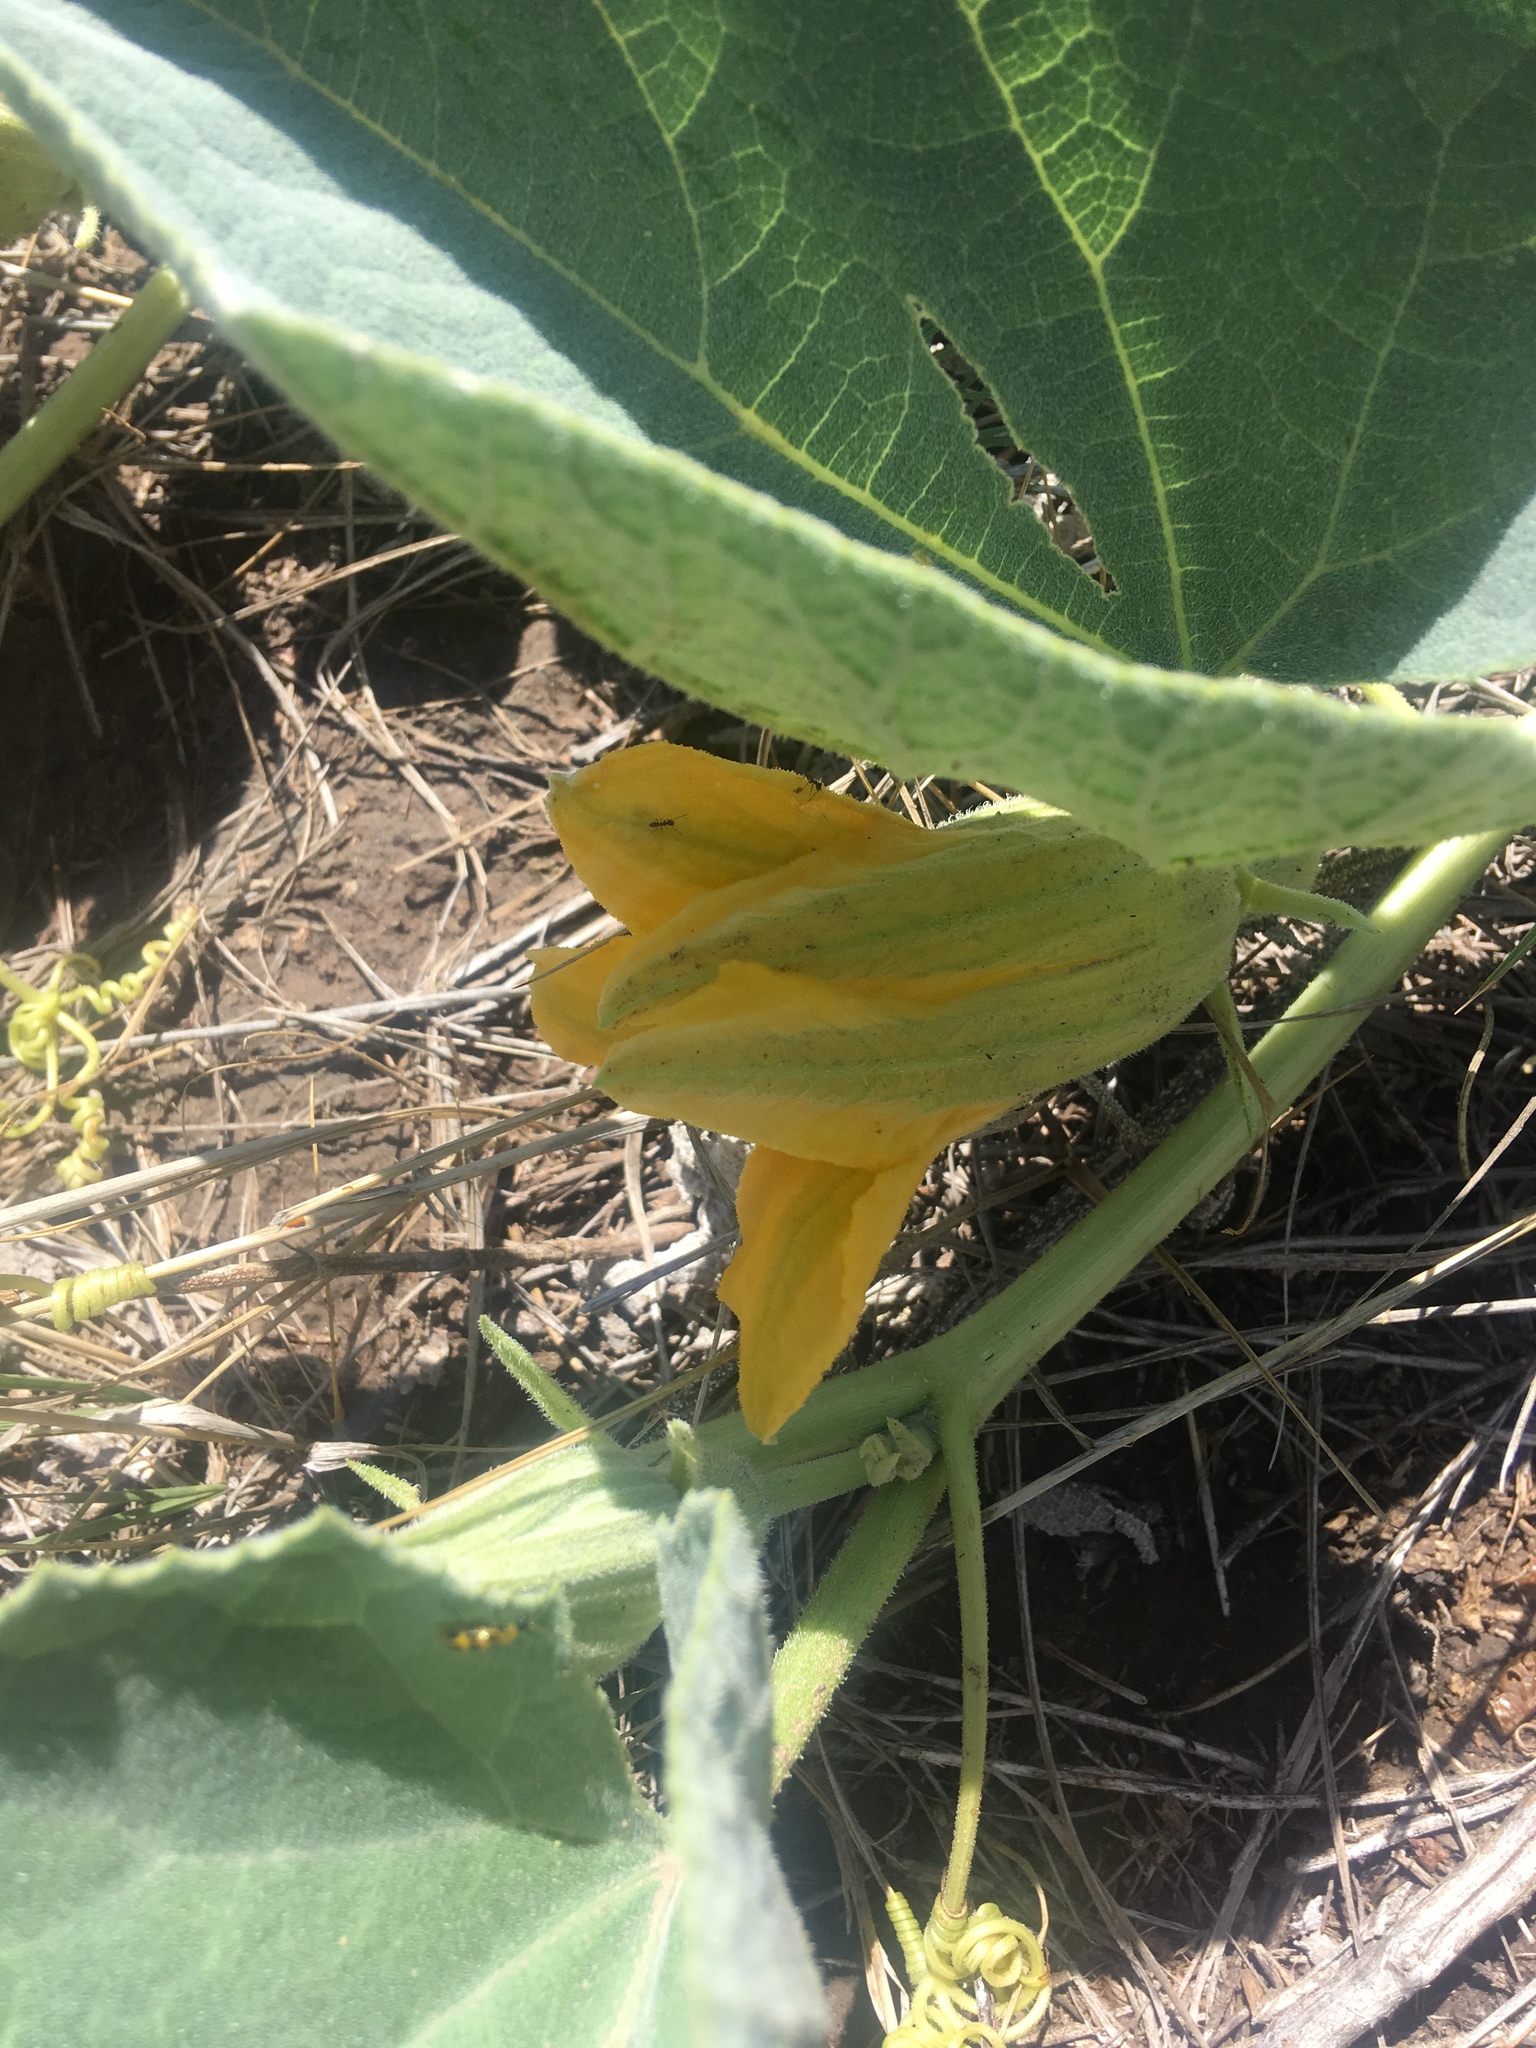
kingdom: Plantae
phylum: Tracheophyta
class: Magnoliopsida
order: Cucurbitales
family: Cucurbitaceae
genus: Cucurbita
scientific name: Cucurbita foetidissima
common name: Buffalo gourd
